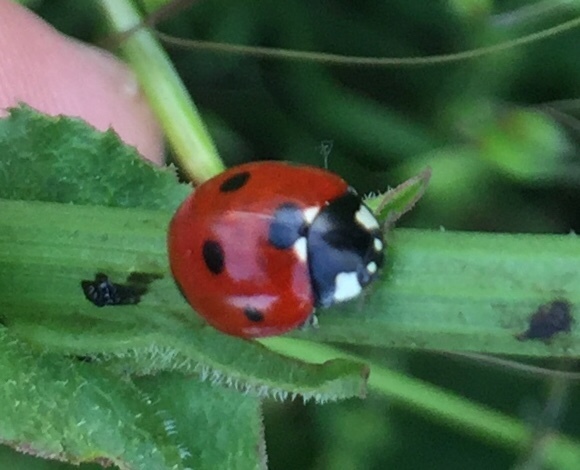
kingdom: Animalia
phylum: Arthropoda
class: Insecta
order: Coleoptera
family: Coccinellidae
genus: Coccinella
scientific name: Coccinella septempunctata
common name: Sevenspotted lady beetle
